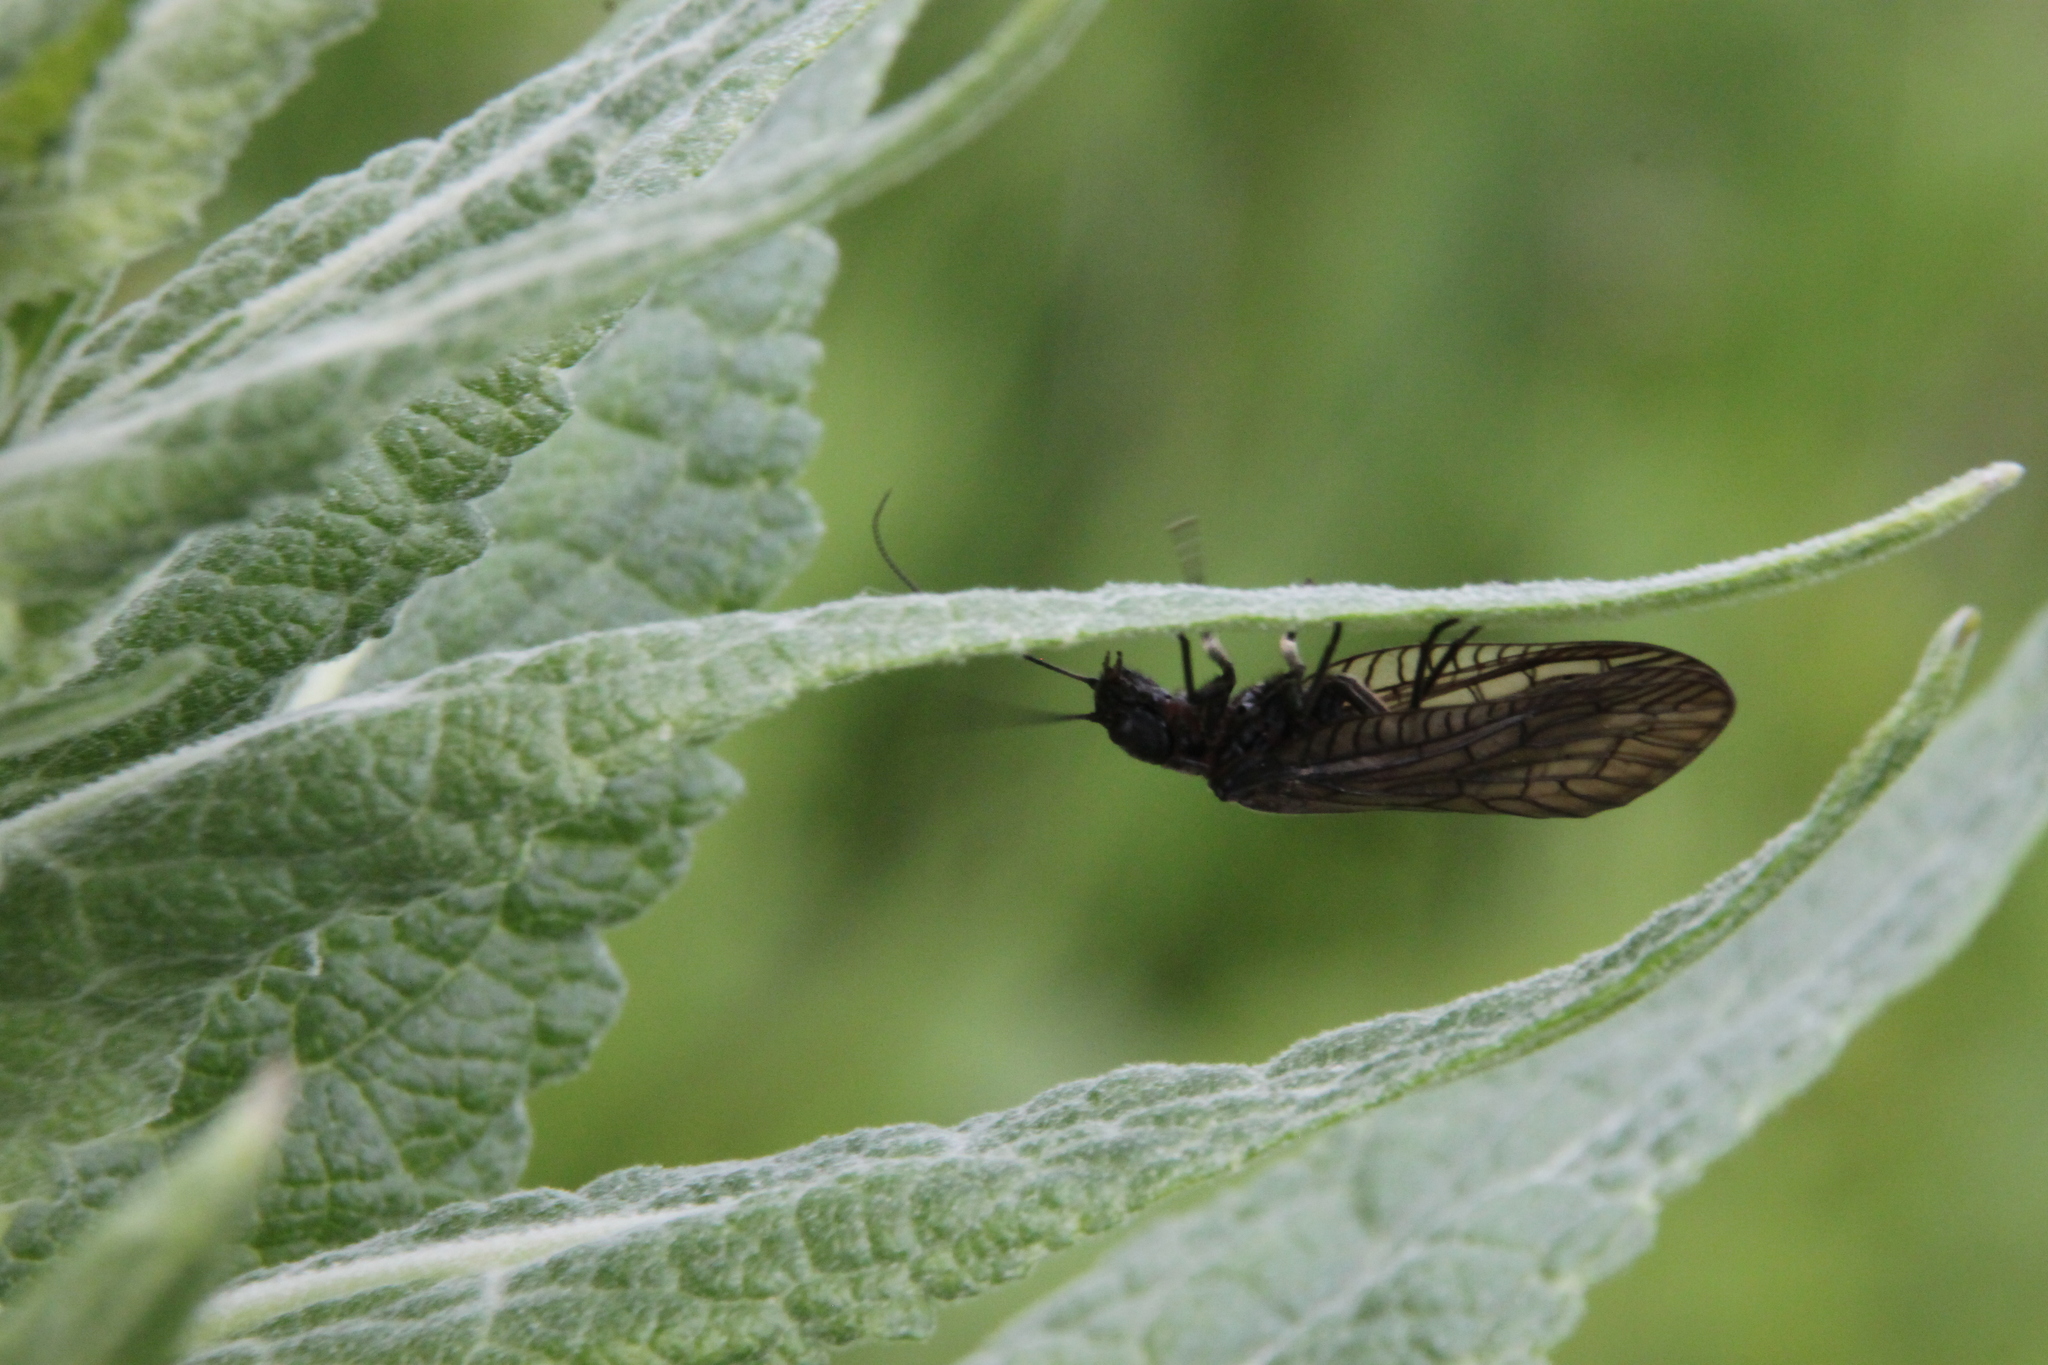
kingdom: Animalia
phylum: Arthropoda
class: Insecta
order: Megaloptera
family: Sialidae
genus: Sialis
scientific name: Sialis
